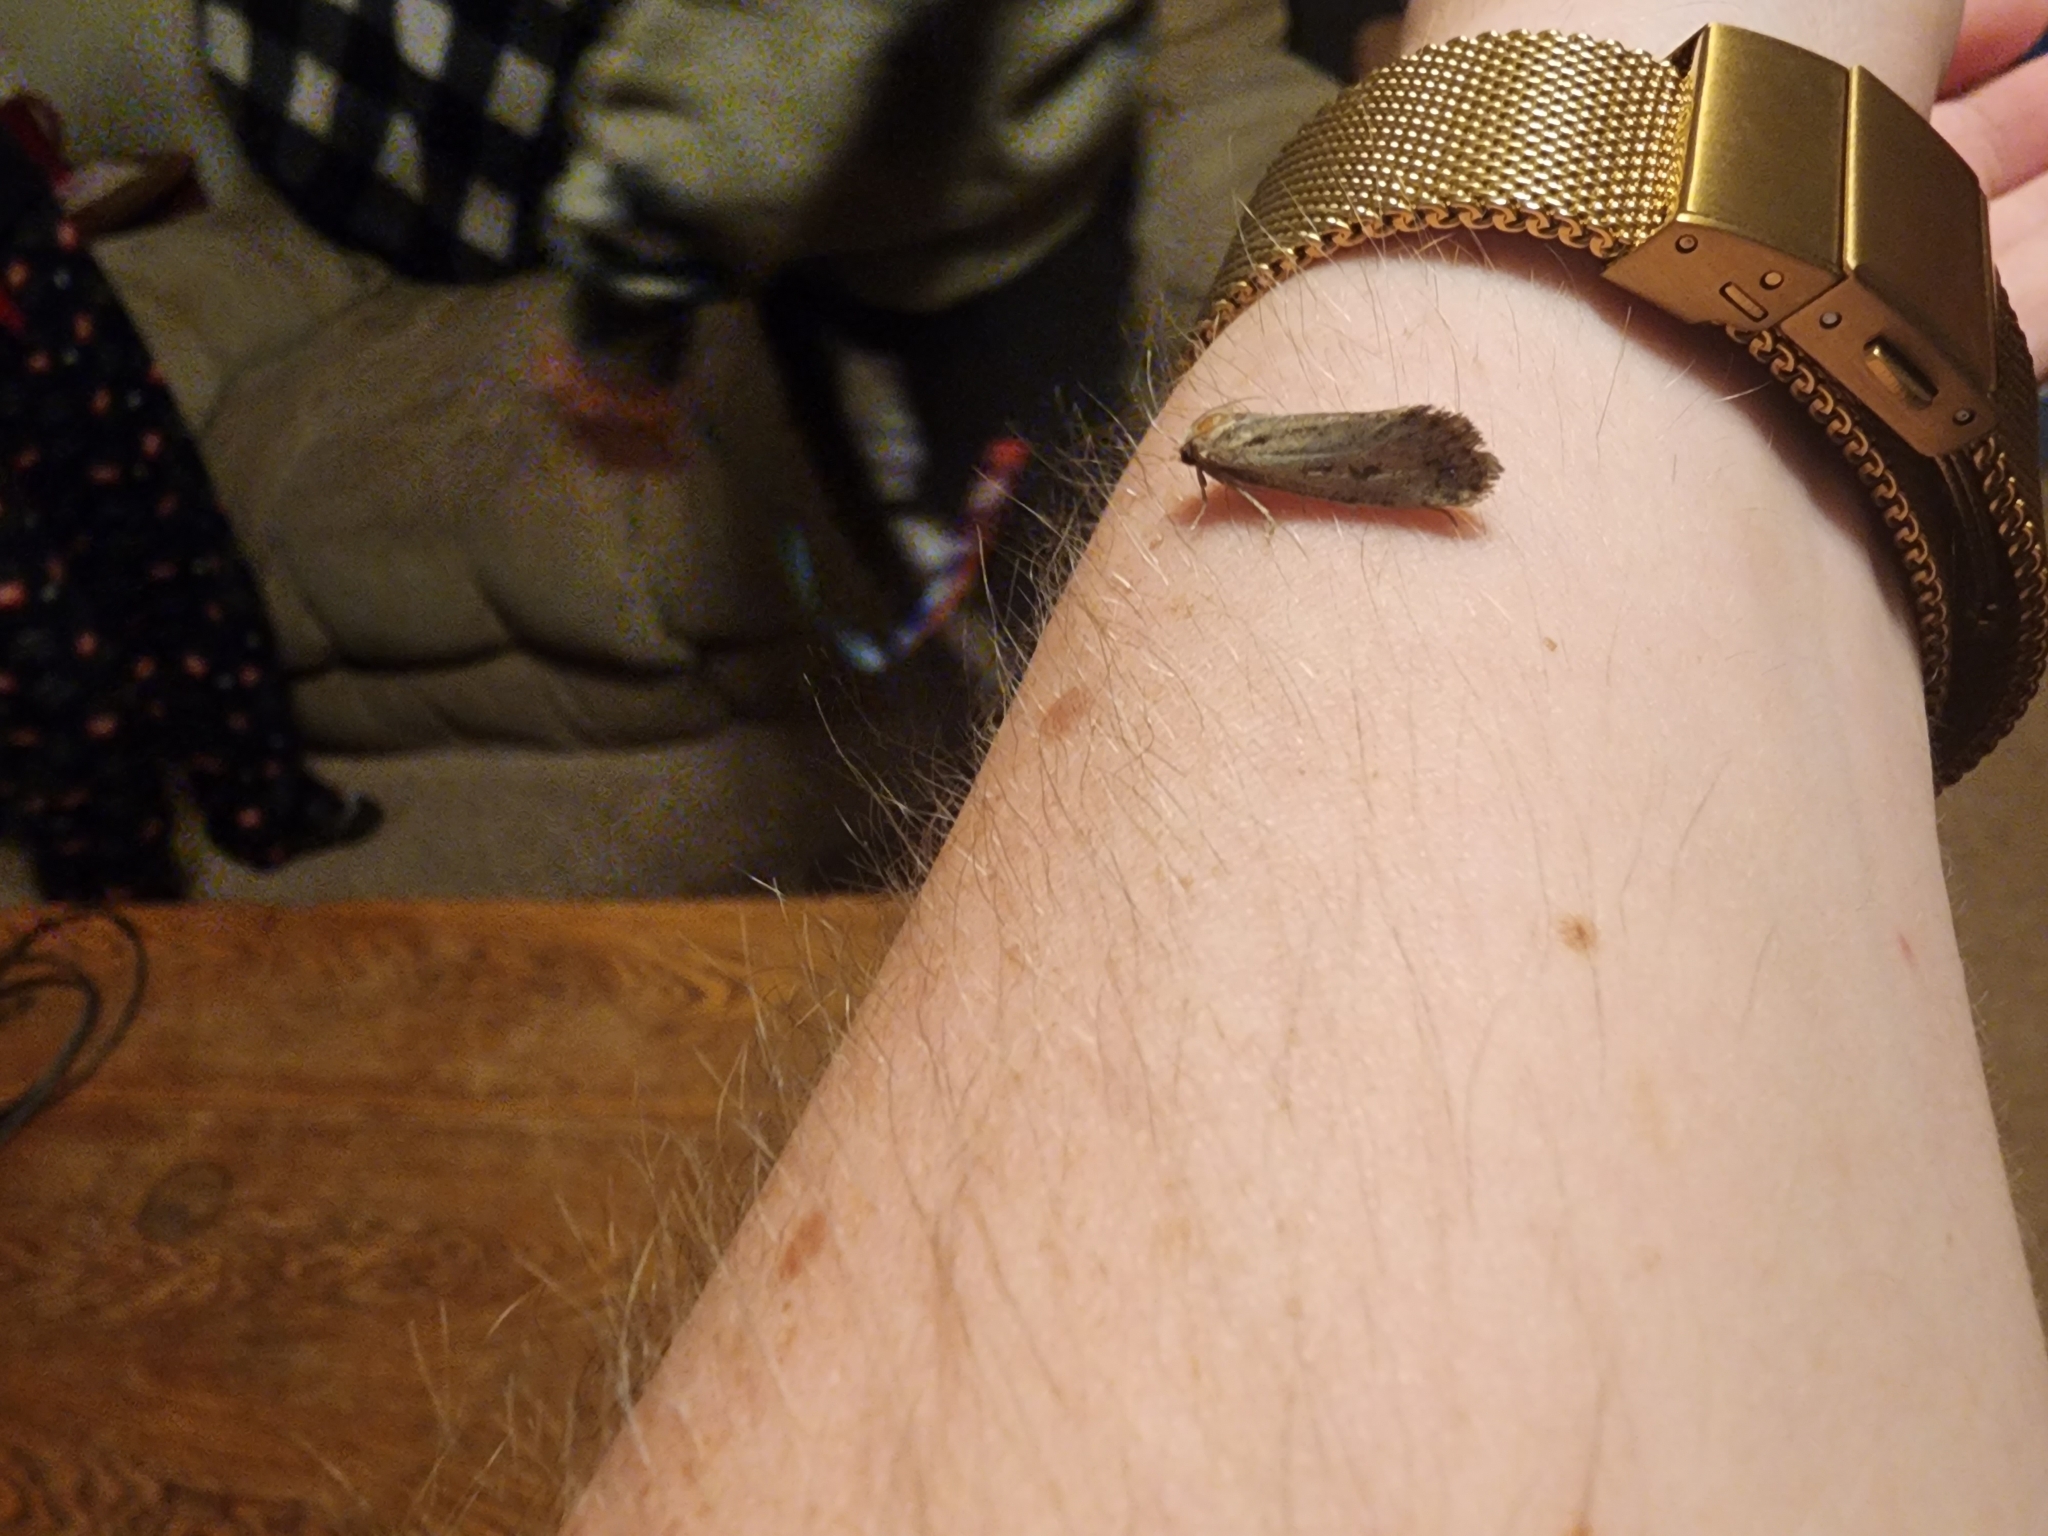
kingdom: Animalia
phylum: Arthropoda
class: Insecta
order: Lepidoptera
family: Tineidae
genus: Acrolophus
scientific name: Acrolophus popeanella
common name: Clemens' grass tubeworm moth
